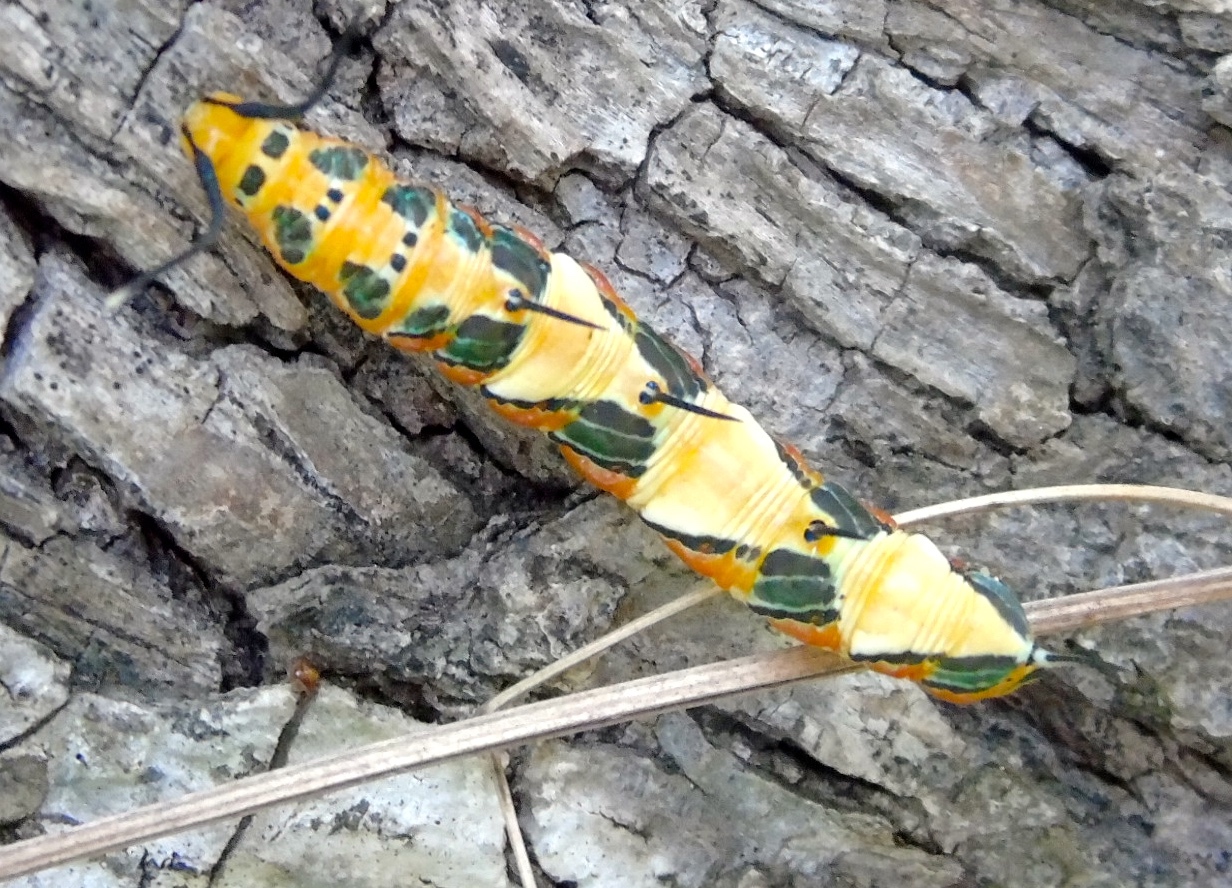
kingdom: Animalia
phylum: Arthropoda
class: Insecta
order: Lepidoptera
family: Nymphalidae
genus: Marpesia
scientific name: Marpesia petreus
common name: Red dagger wing
